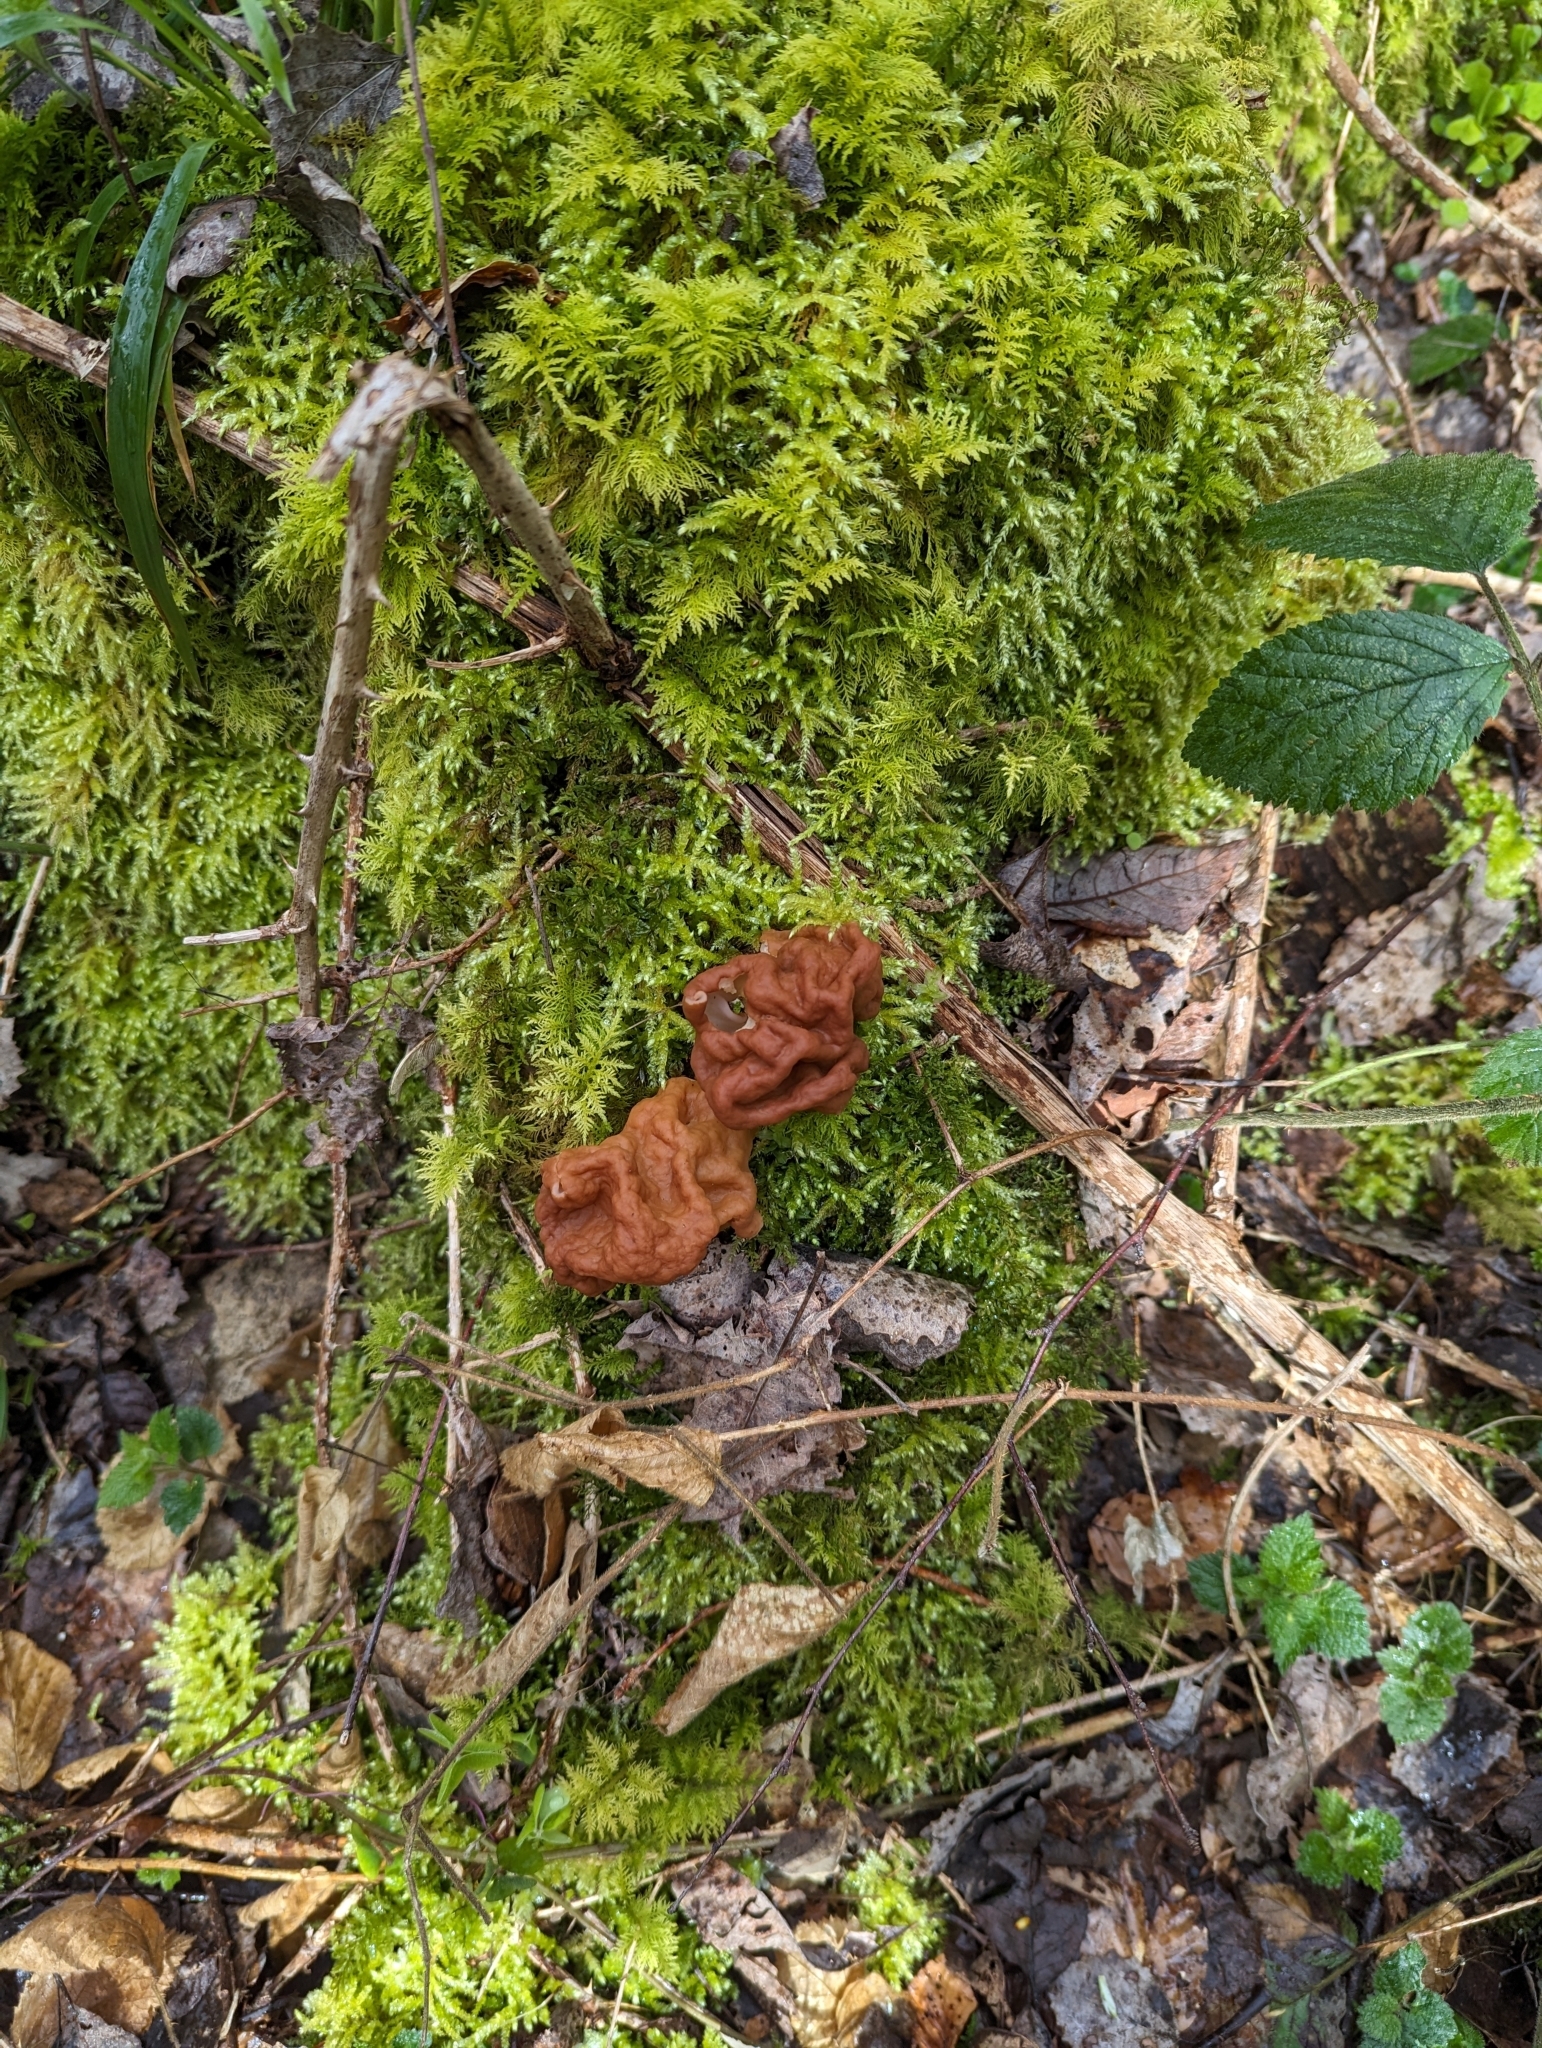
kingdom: Fungi
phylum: Ascomycota
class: Pezizomycetes
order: Pezizales
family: Discinaceae
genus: Gyromitra
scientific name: Gyromitra gigas
